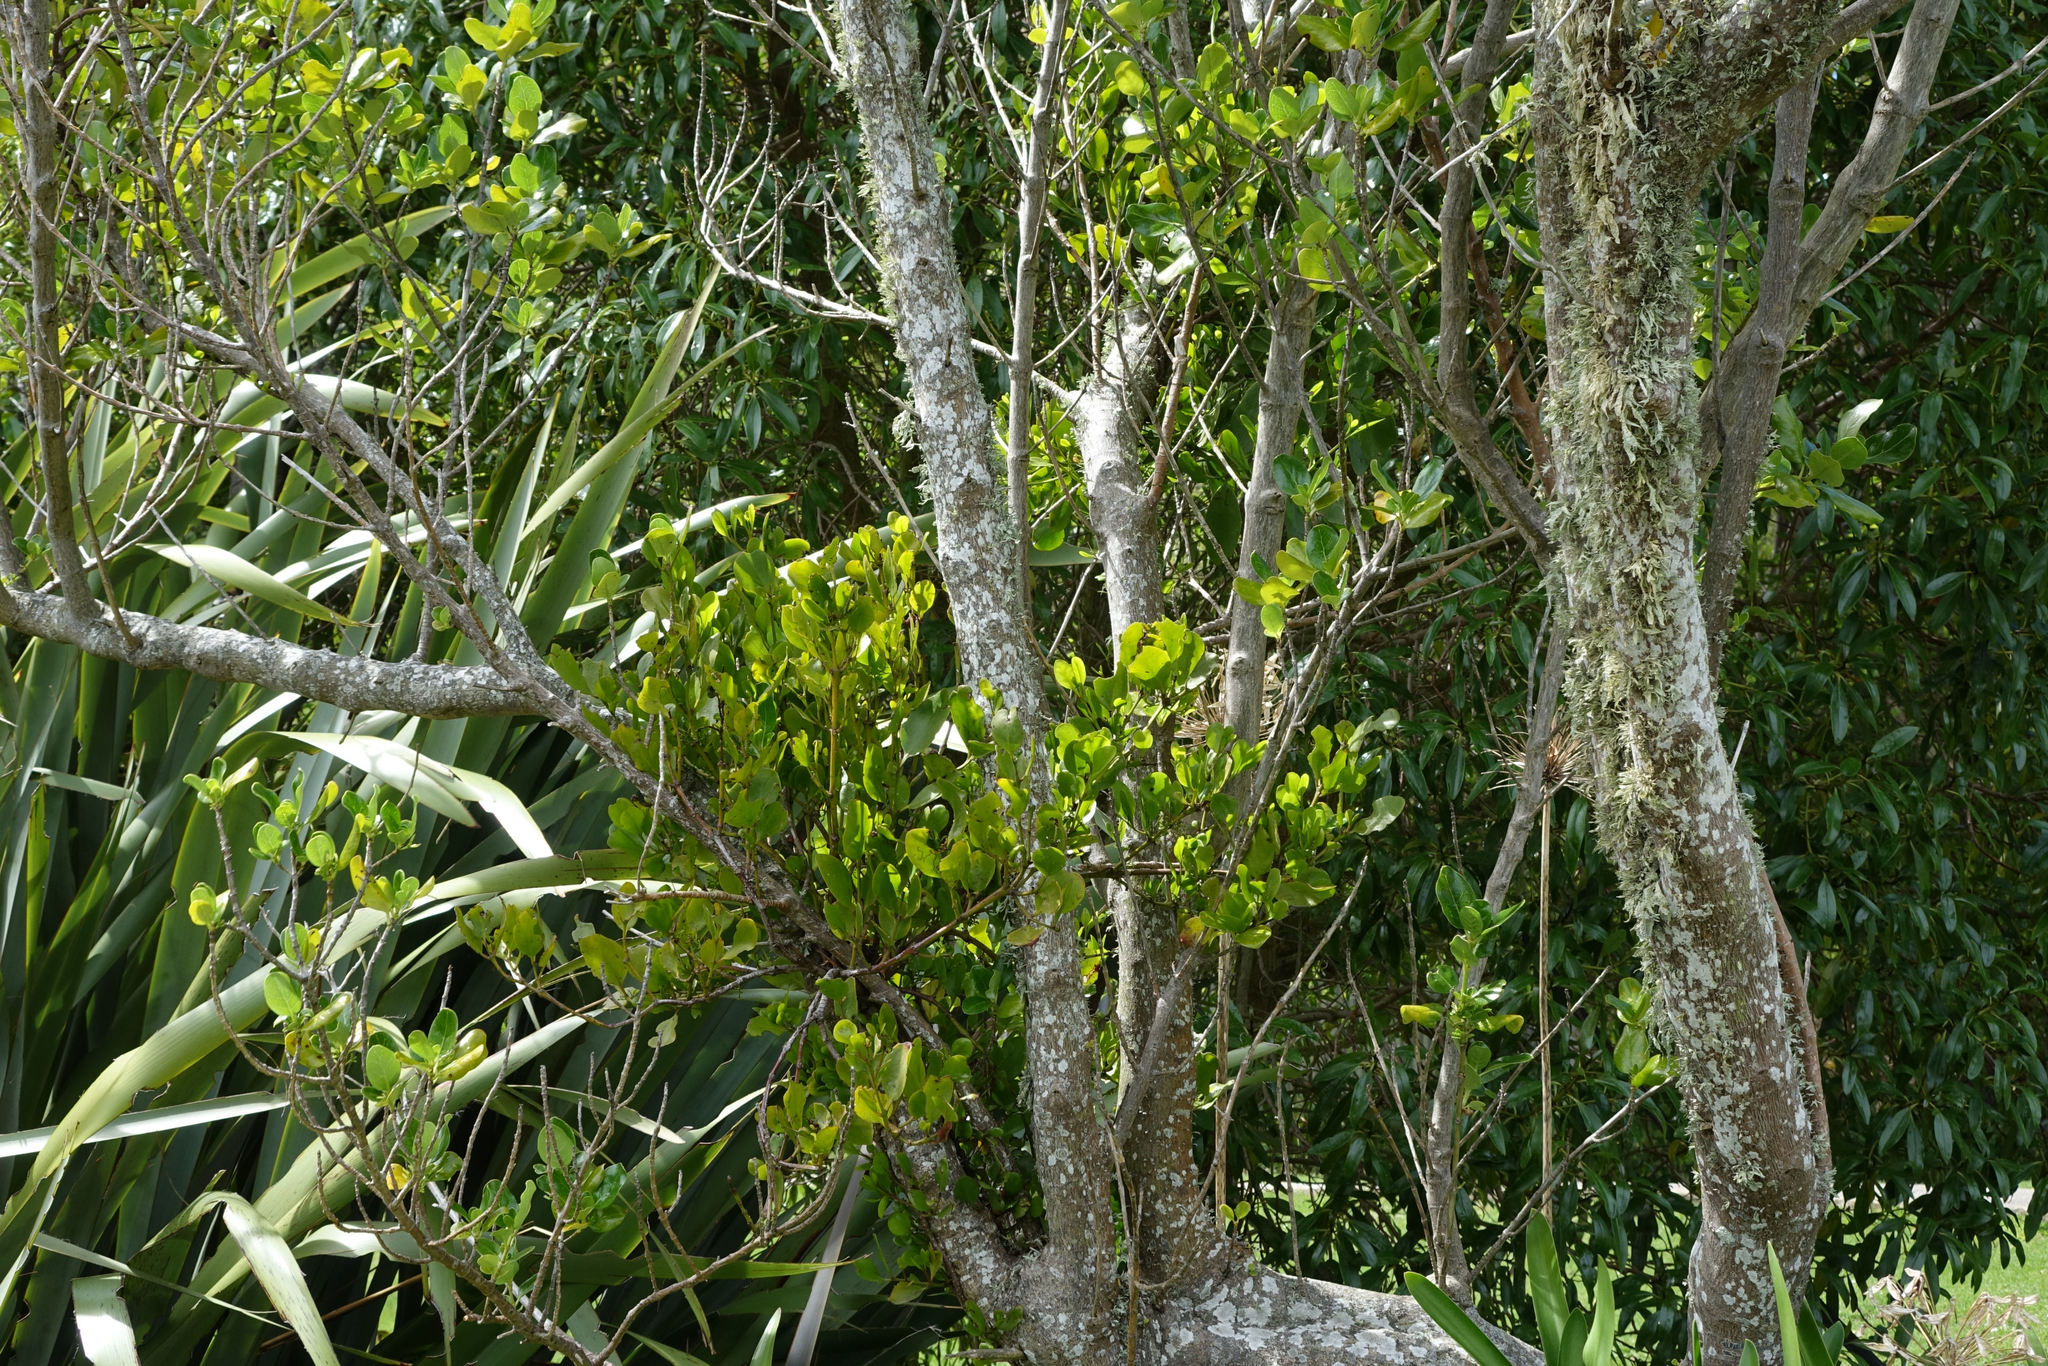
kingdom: Plantae
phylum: Tracheophyta
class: Magnoliopsida
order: Santalales
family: Loranthaceae
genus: Ileostylus
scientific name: Ileostylus micranthus
